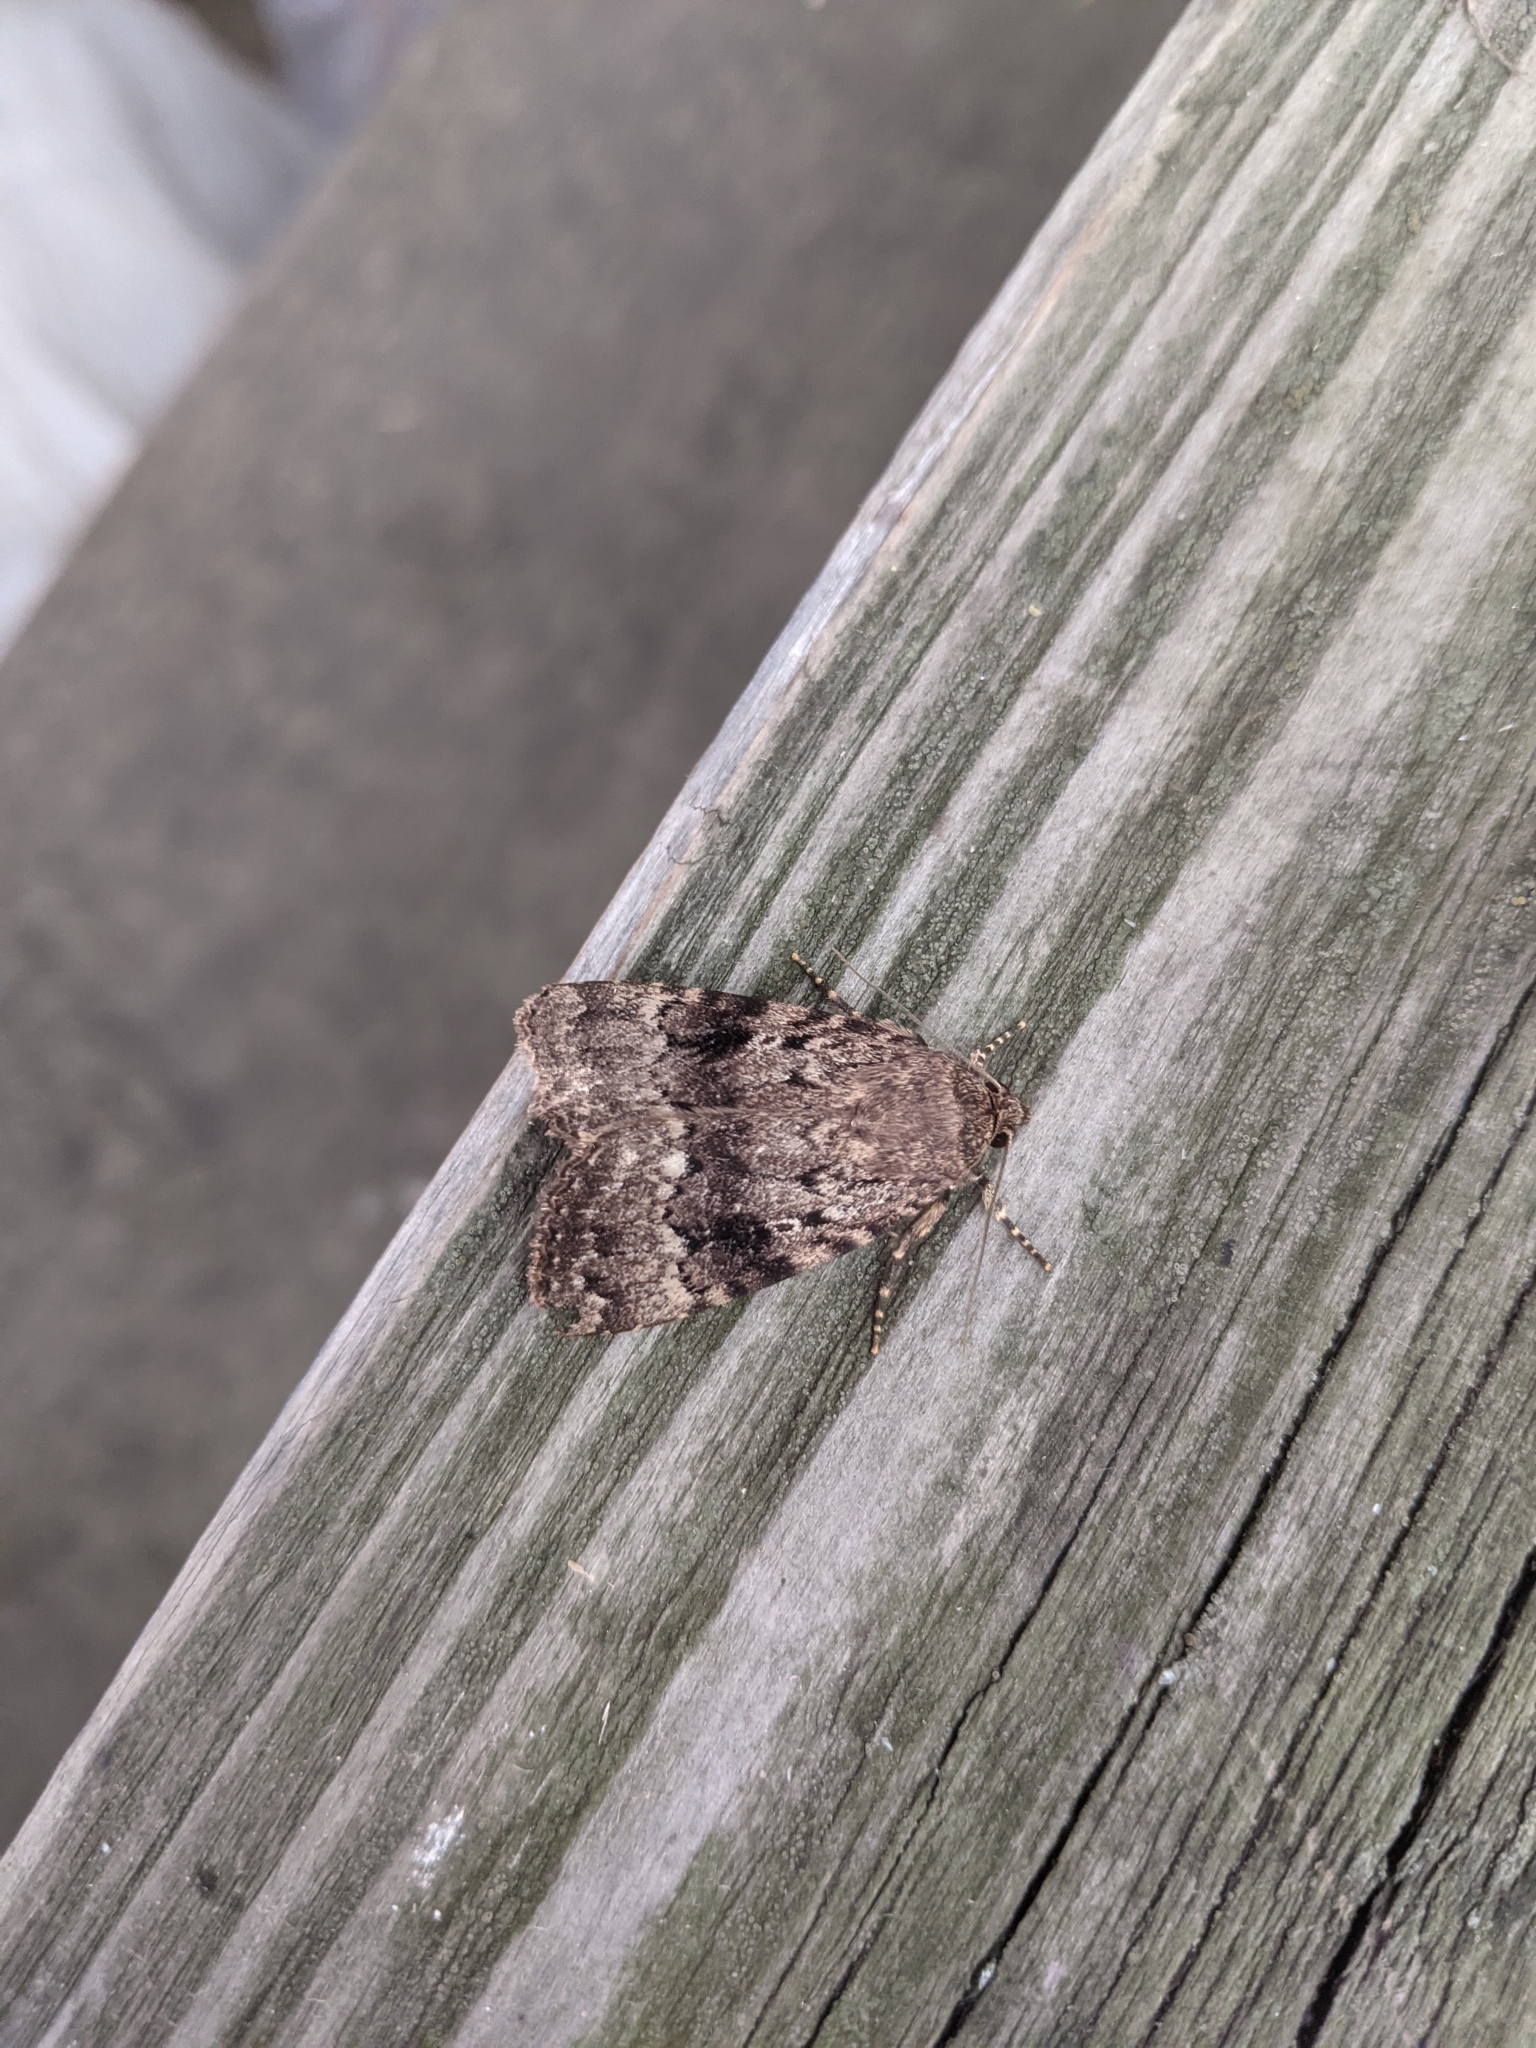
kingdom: Animalia
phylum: Arthropoda
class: Insecta
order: Lepidoptera
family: Noctuidae
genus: Amphipyra
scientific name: Amphipyra pyramidea
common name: Copper underwing
